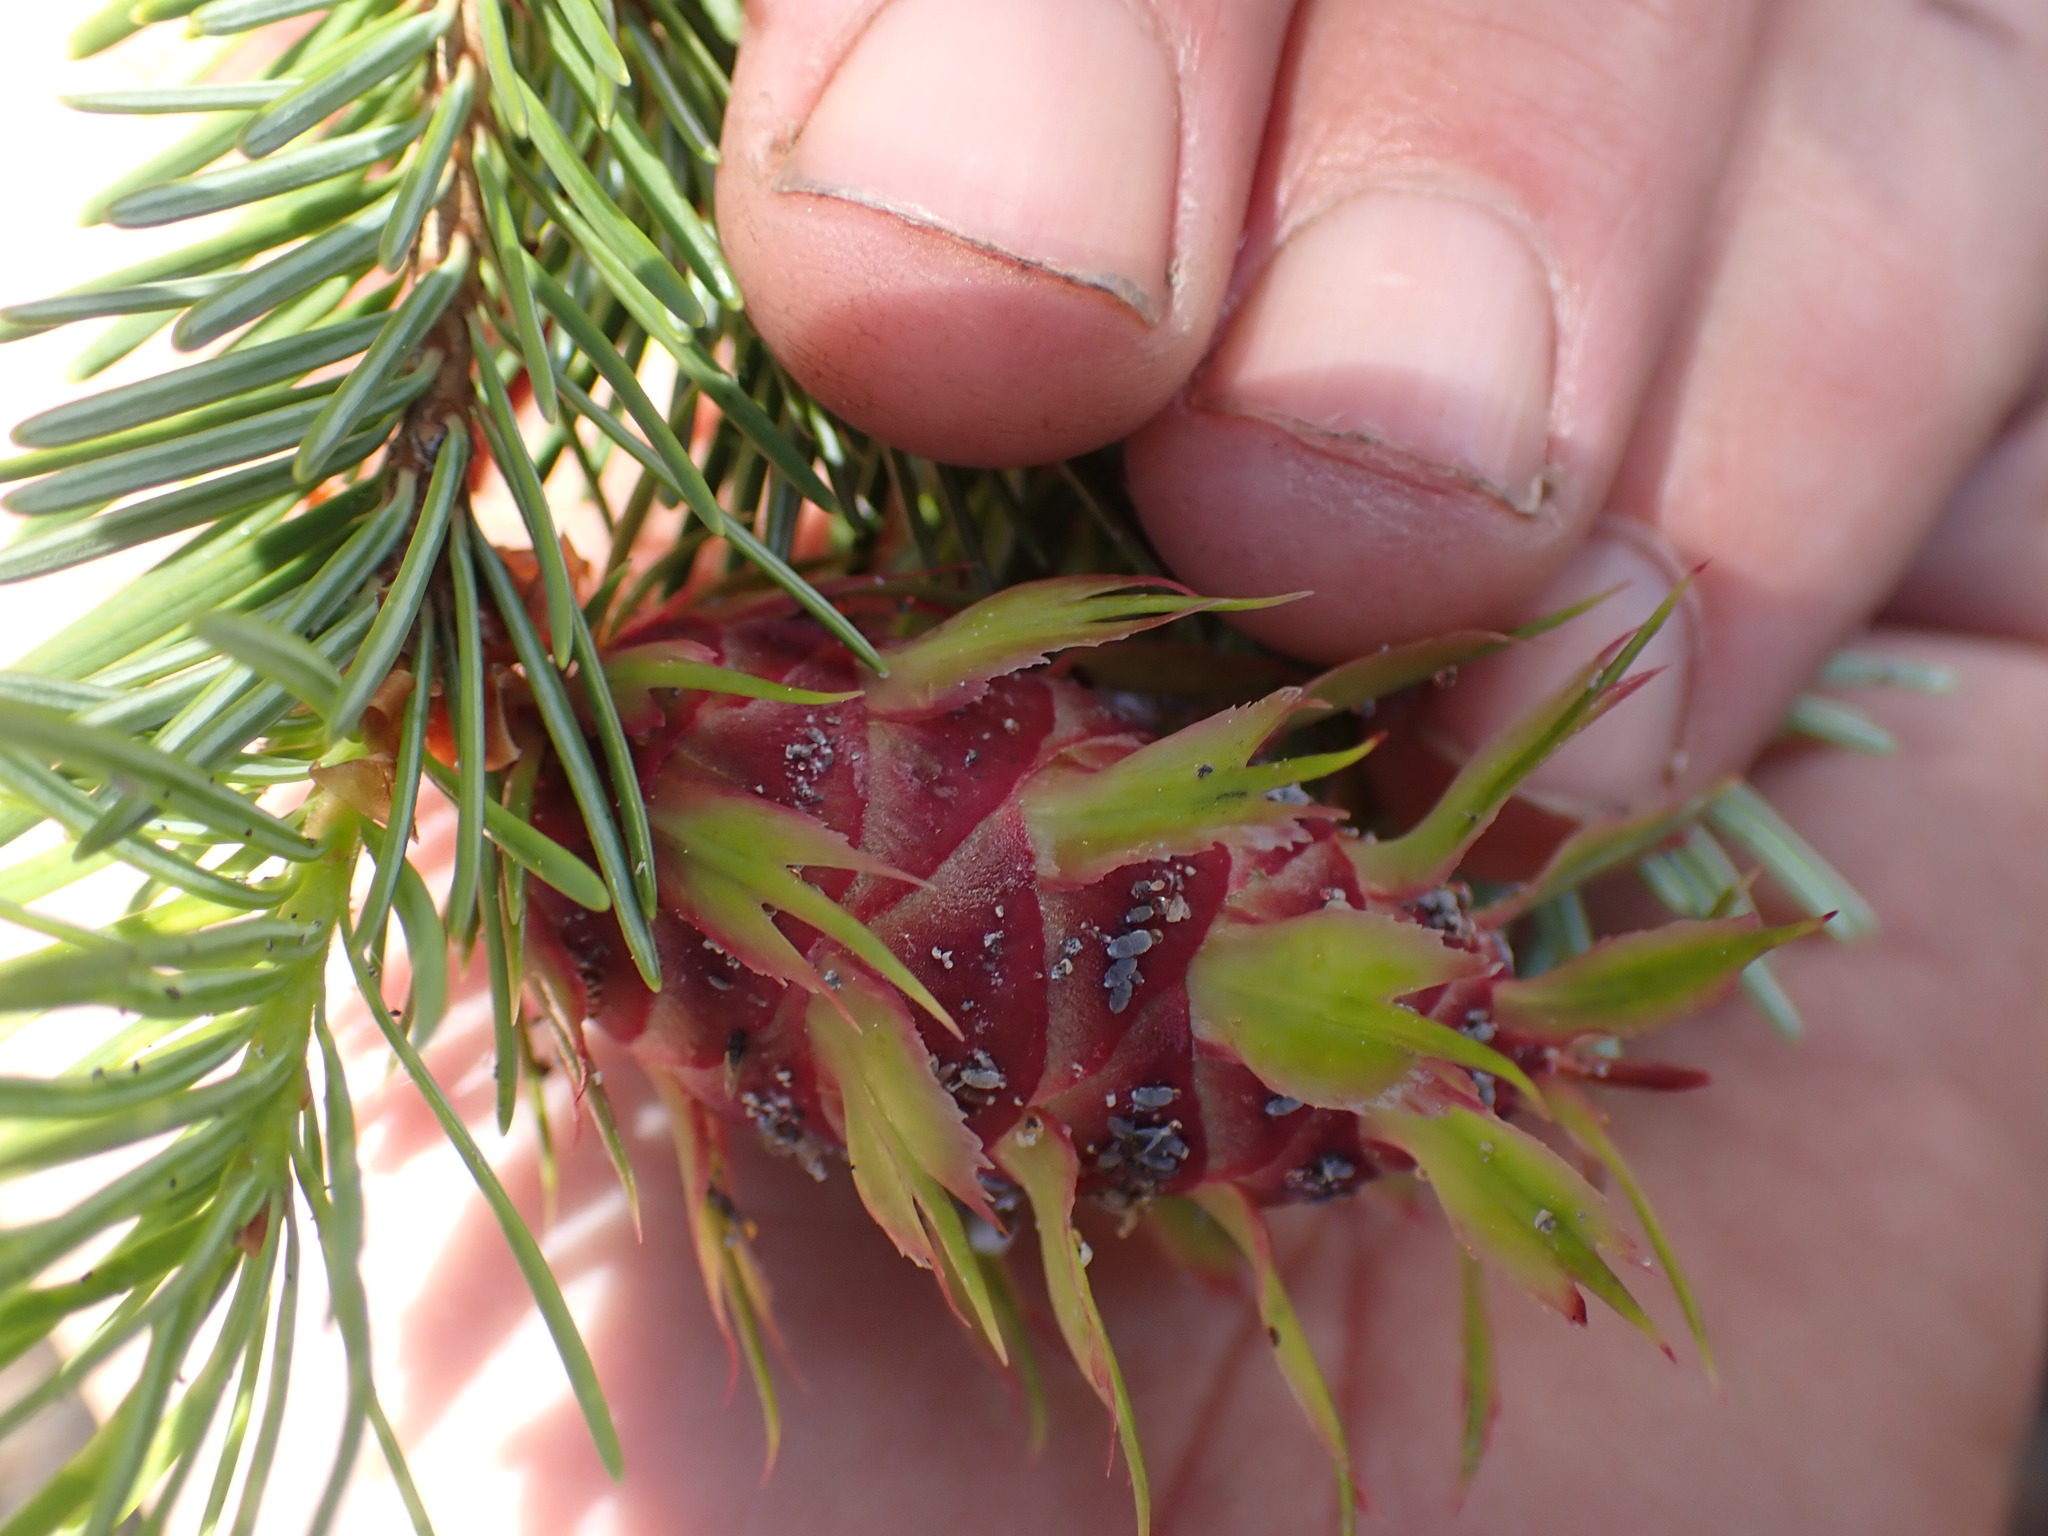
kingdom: Plantae
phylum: Tracheophyta
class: Pinopsida
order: Pinales
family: Pinaceae
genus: Pseudotsuga
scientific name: Pseudotsuga menziesii
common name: Douglas fir
